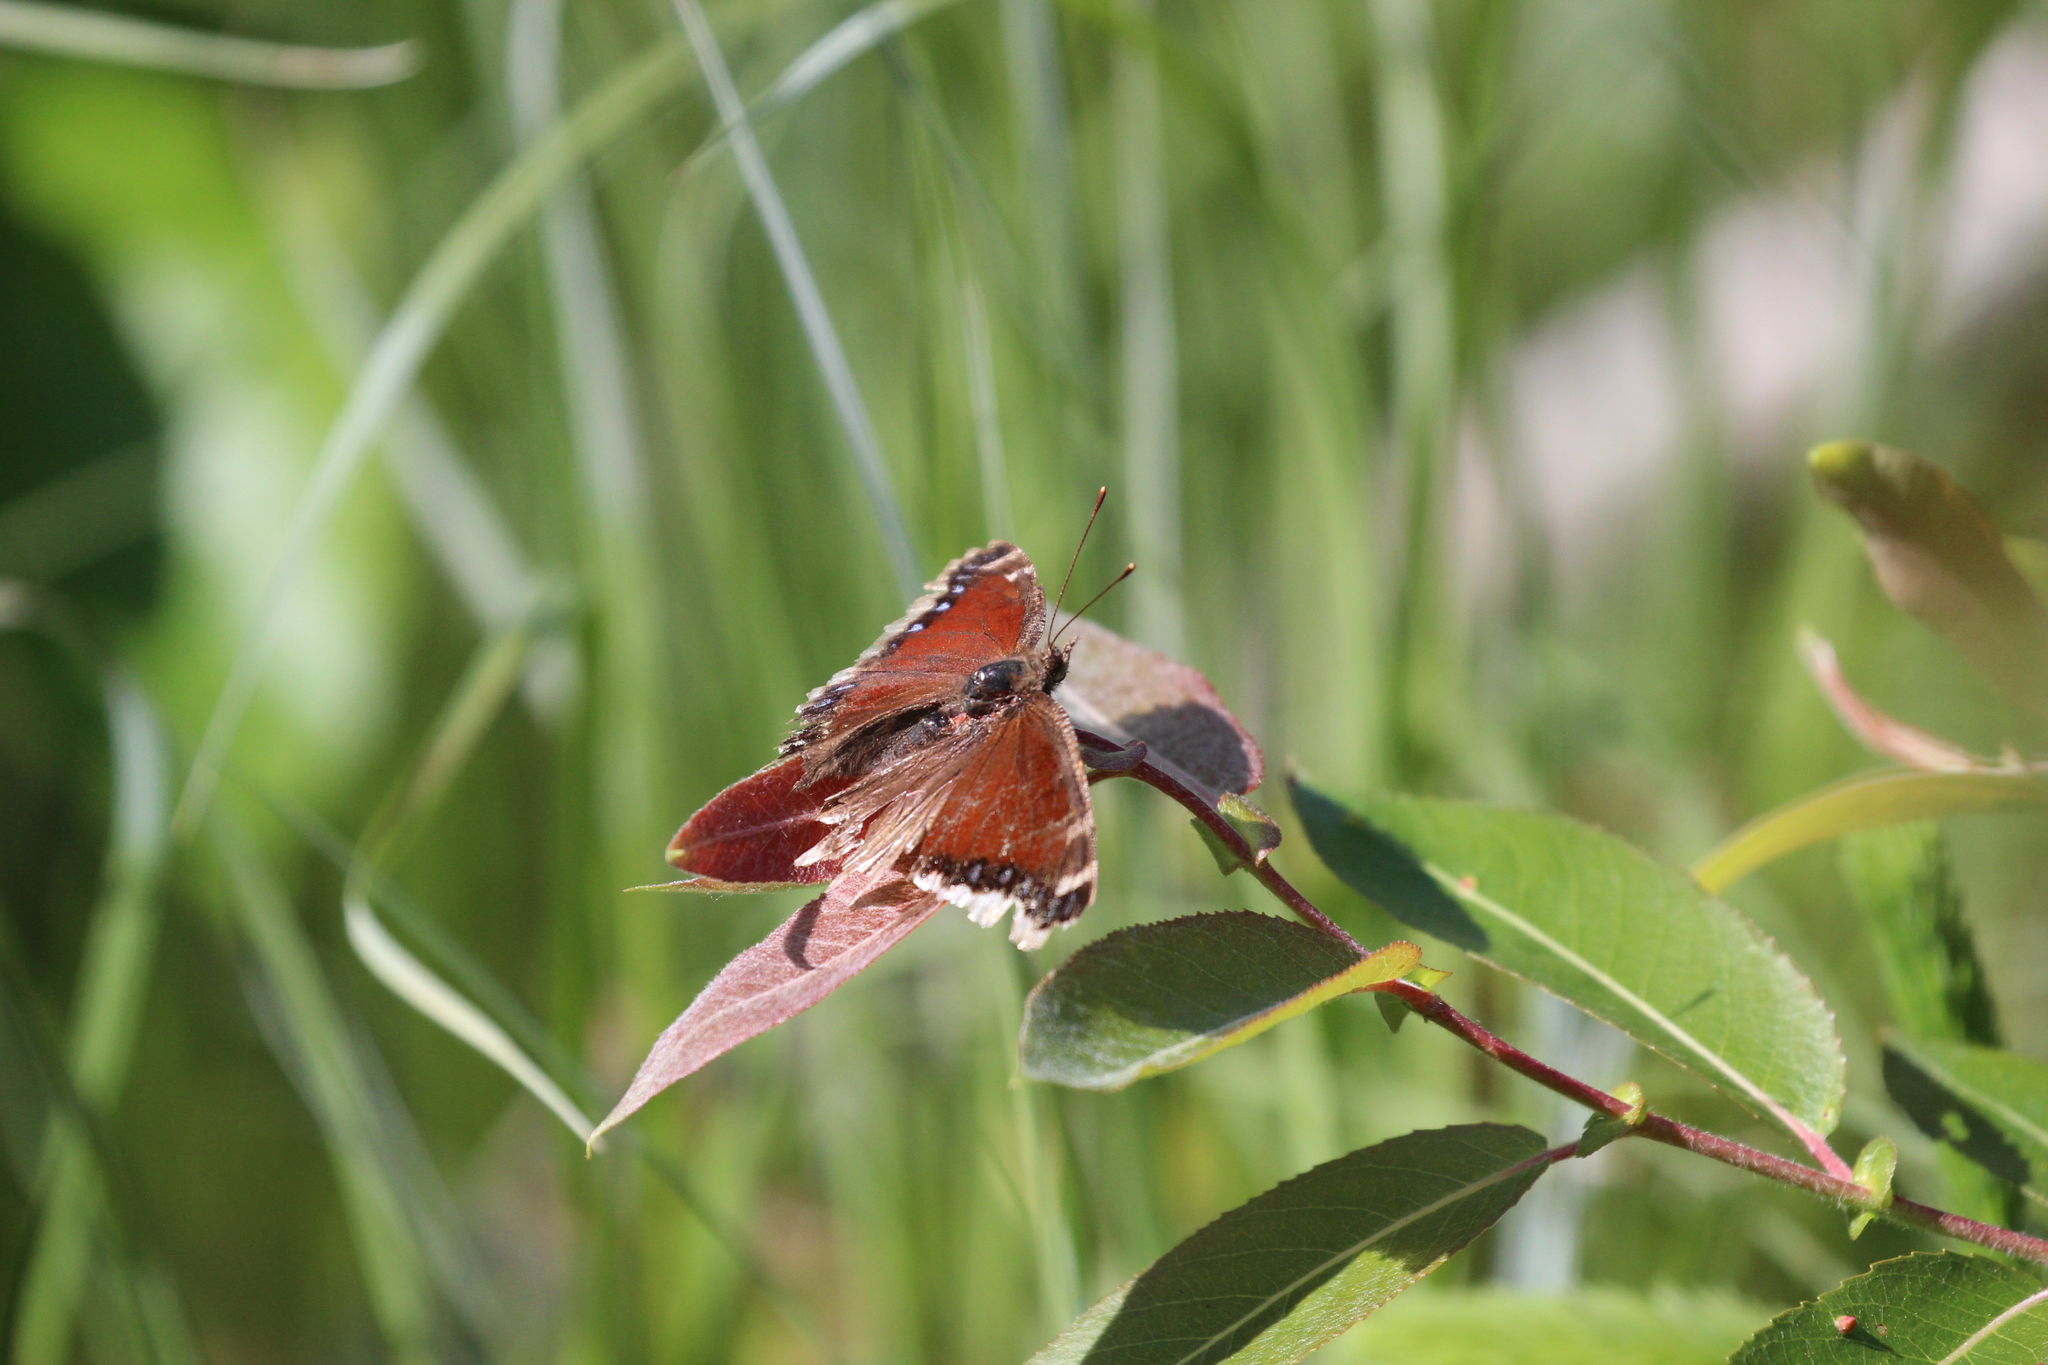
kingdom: Animalia
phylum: Arthropoda
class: Insecta
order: Lepidoptera
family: Nymphalidae
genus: Nymphalis
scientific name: Nymphalis antiopa
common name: Camberwell beauty
